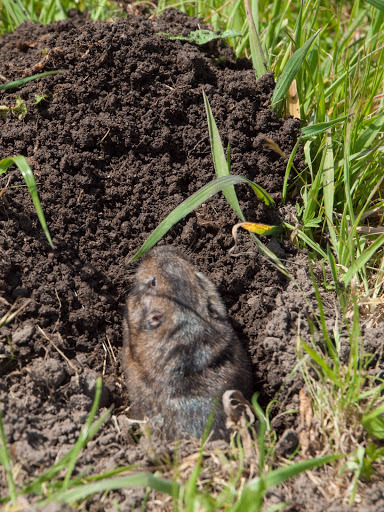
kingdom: Animalia
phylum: Chordata
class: Mammalia
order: Rodentia
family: Geomyidae
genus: Thomomys
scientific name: Thomomys bottae
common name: Botta's pocket gopher
